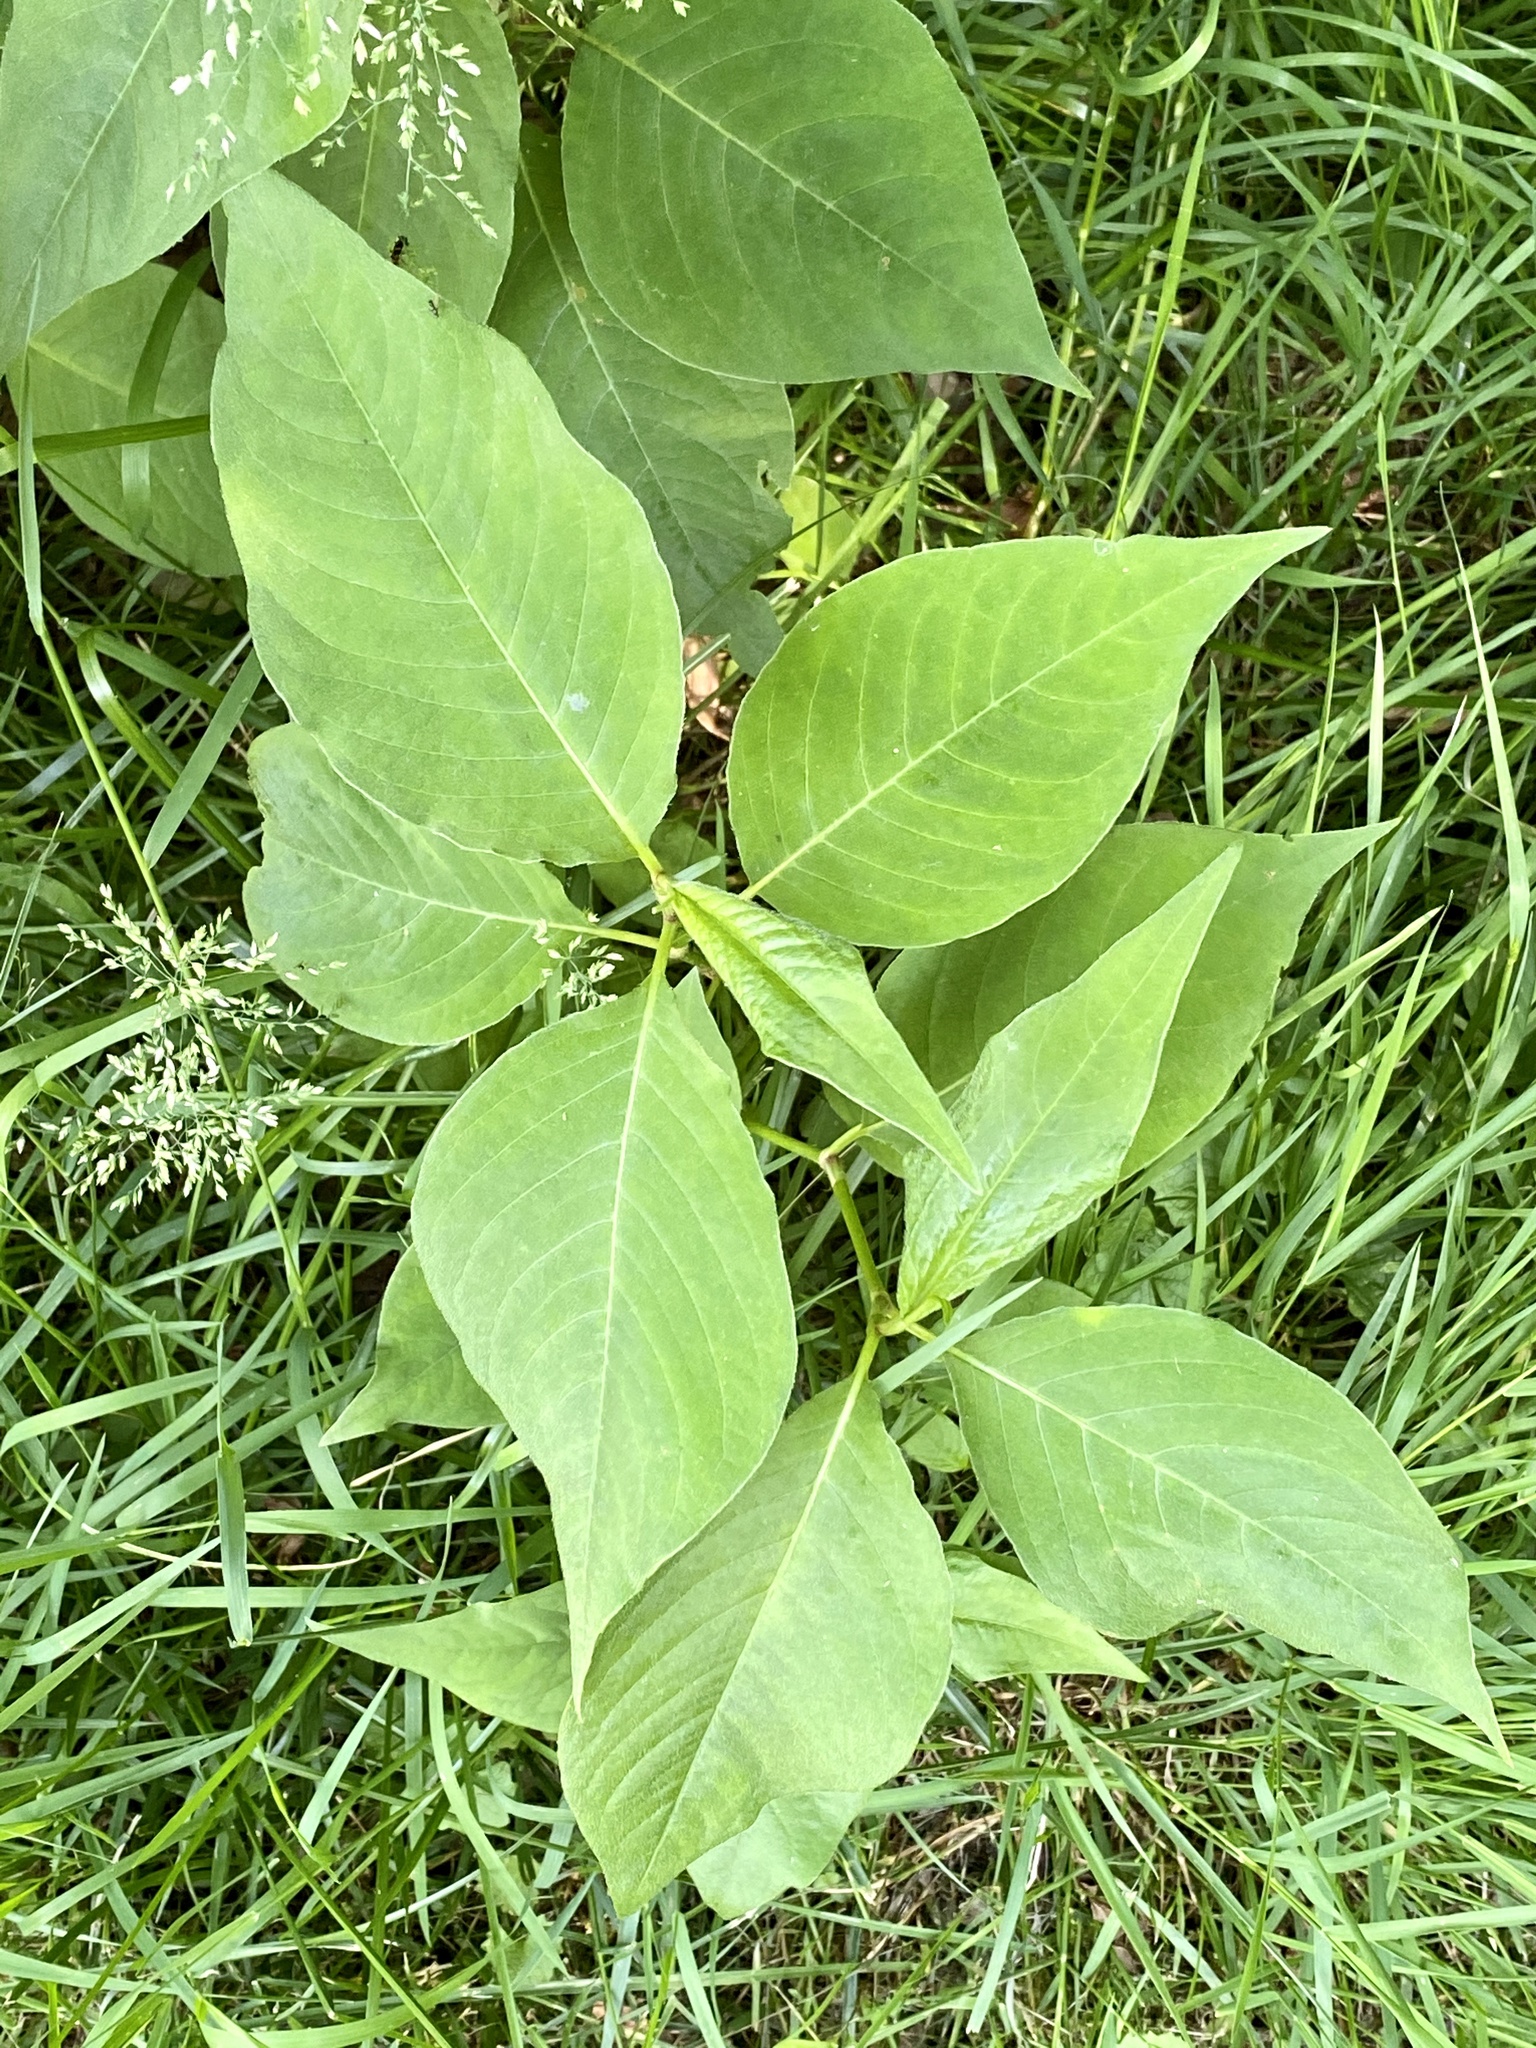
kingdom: Plantae
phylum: Tracheophyta
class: Magnoliopsida
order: Caryophyllales
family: Polygonaceae
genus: Persicaria
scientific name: Persicaria virginiana
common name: Jumpseed
